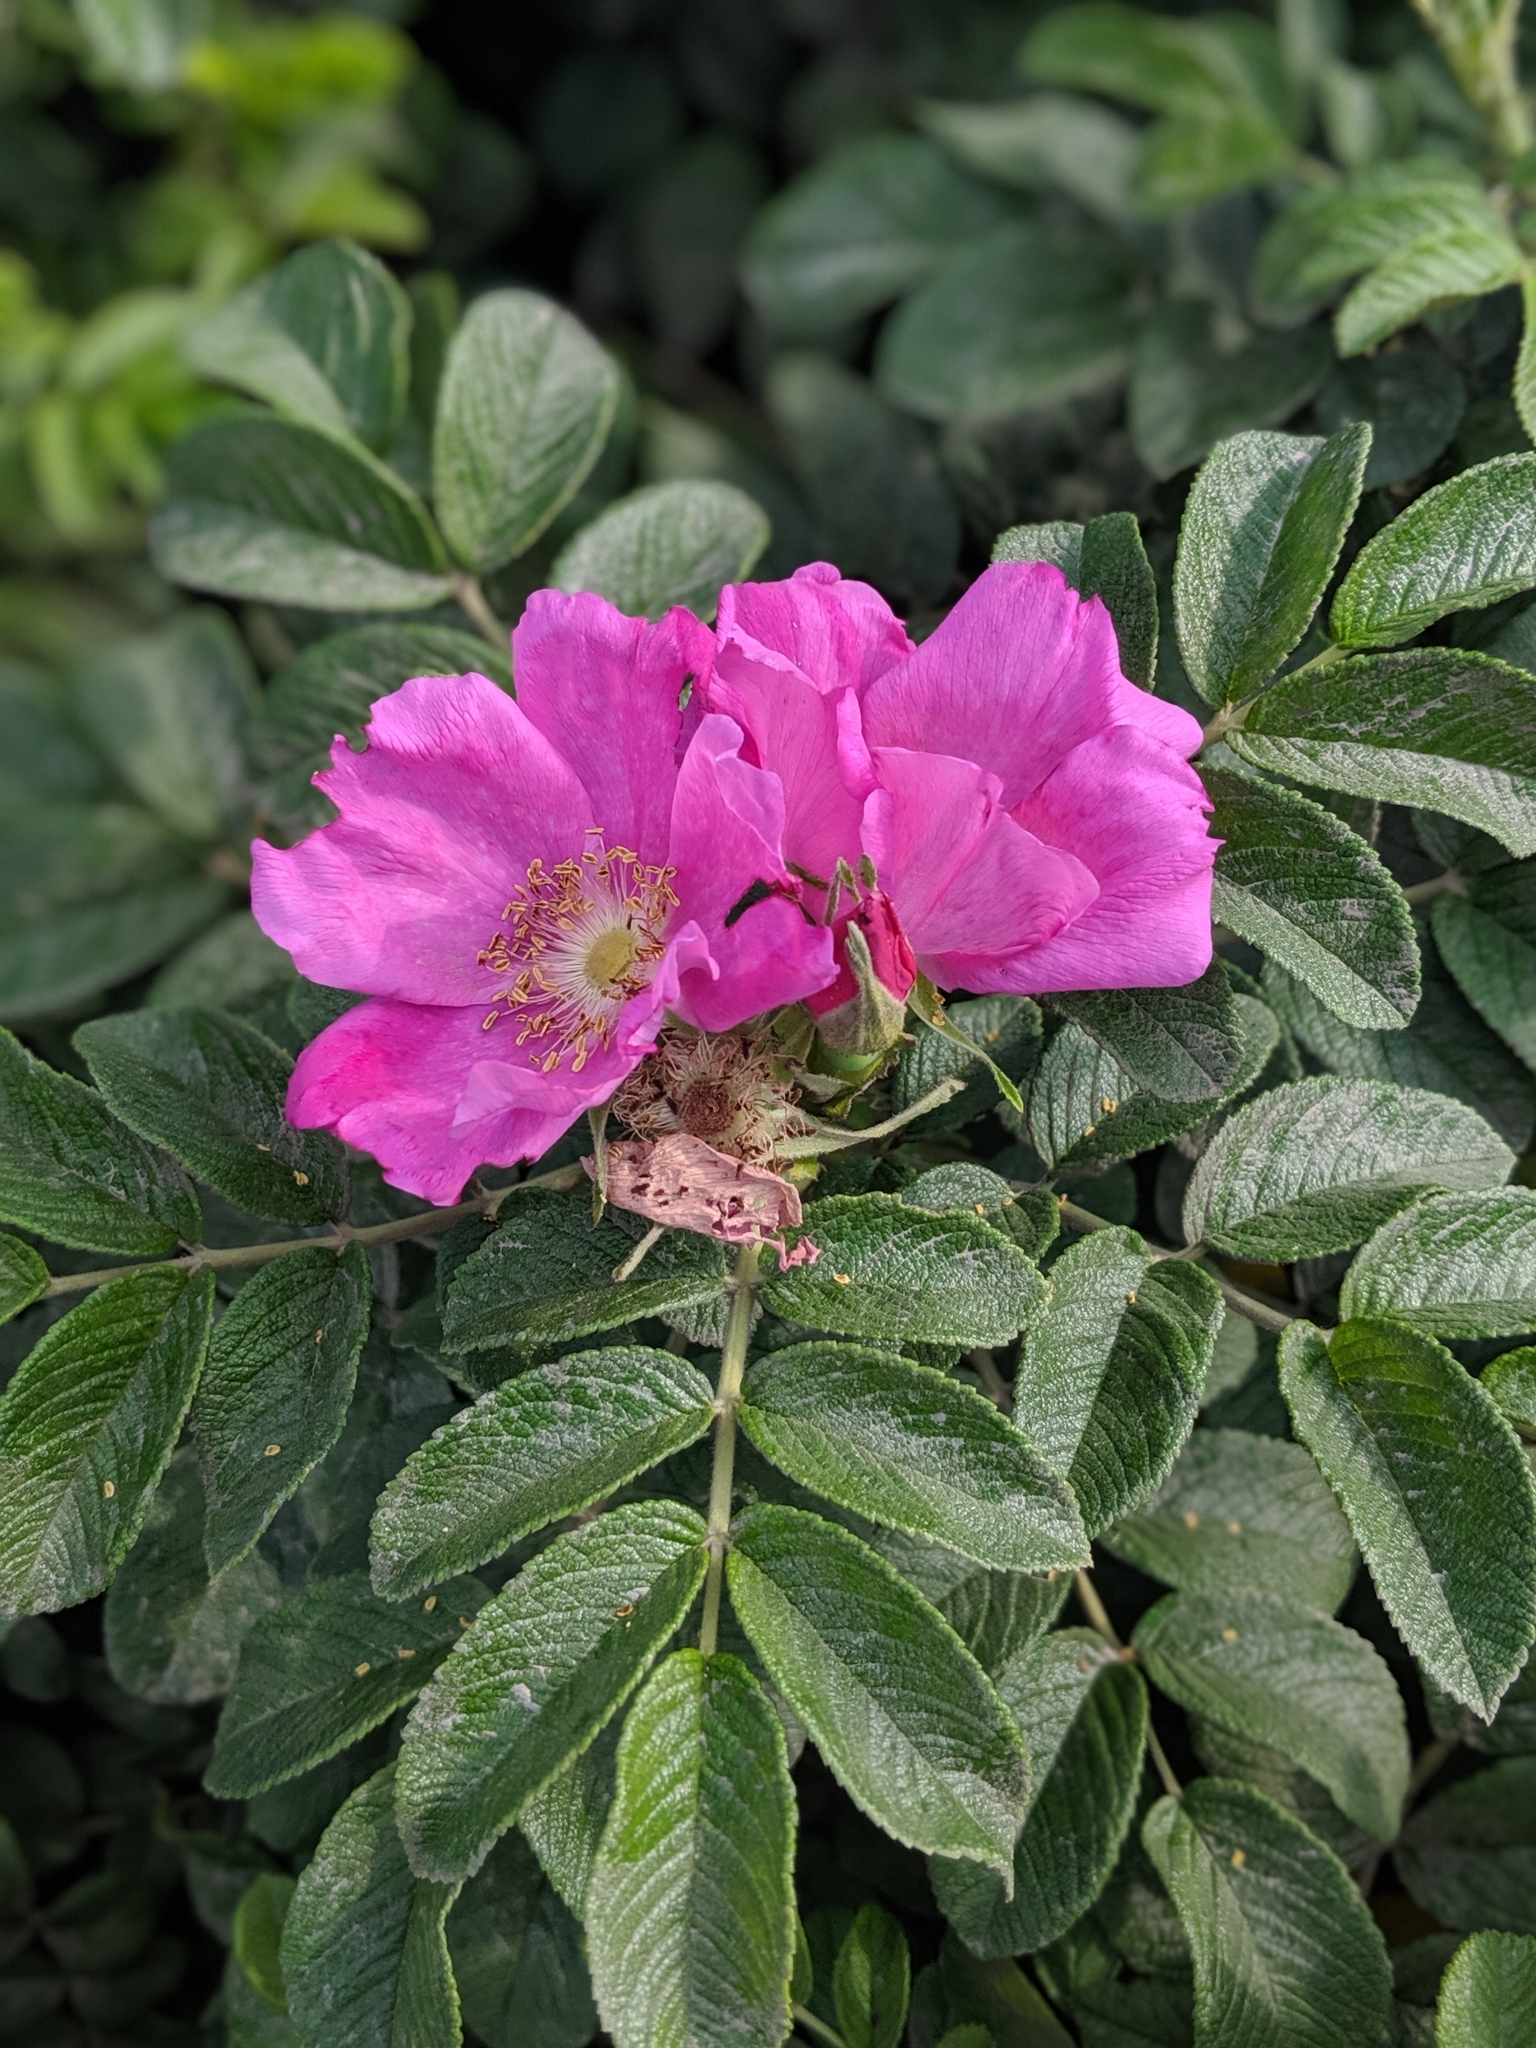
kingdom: Plantae
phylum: Tracheophyta
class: Magnoliopsida
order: Rosales
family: Rosaceae
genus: Rosa
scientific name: Rosa rugosa
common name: Japanese rose
